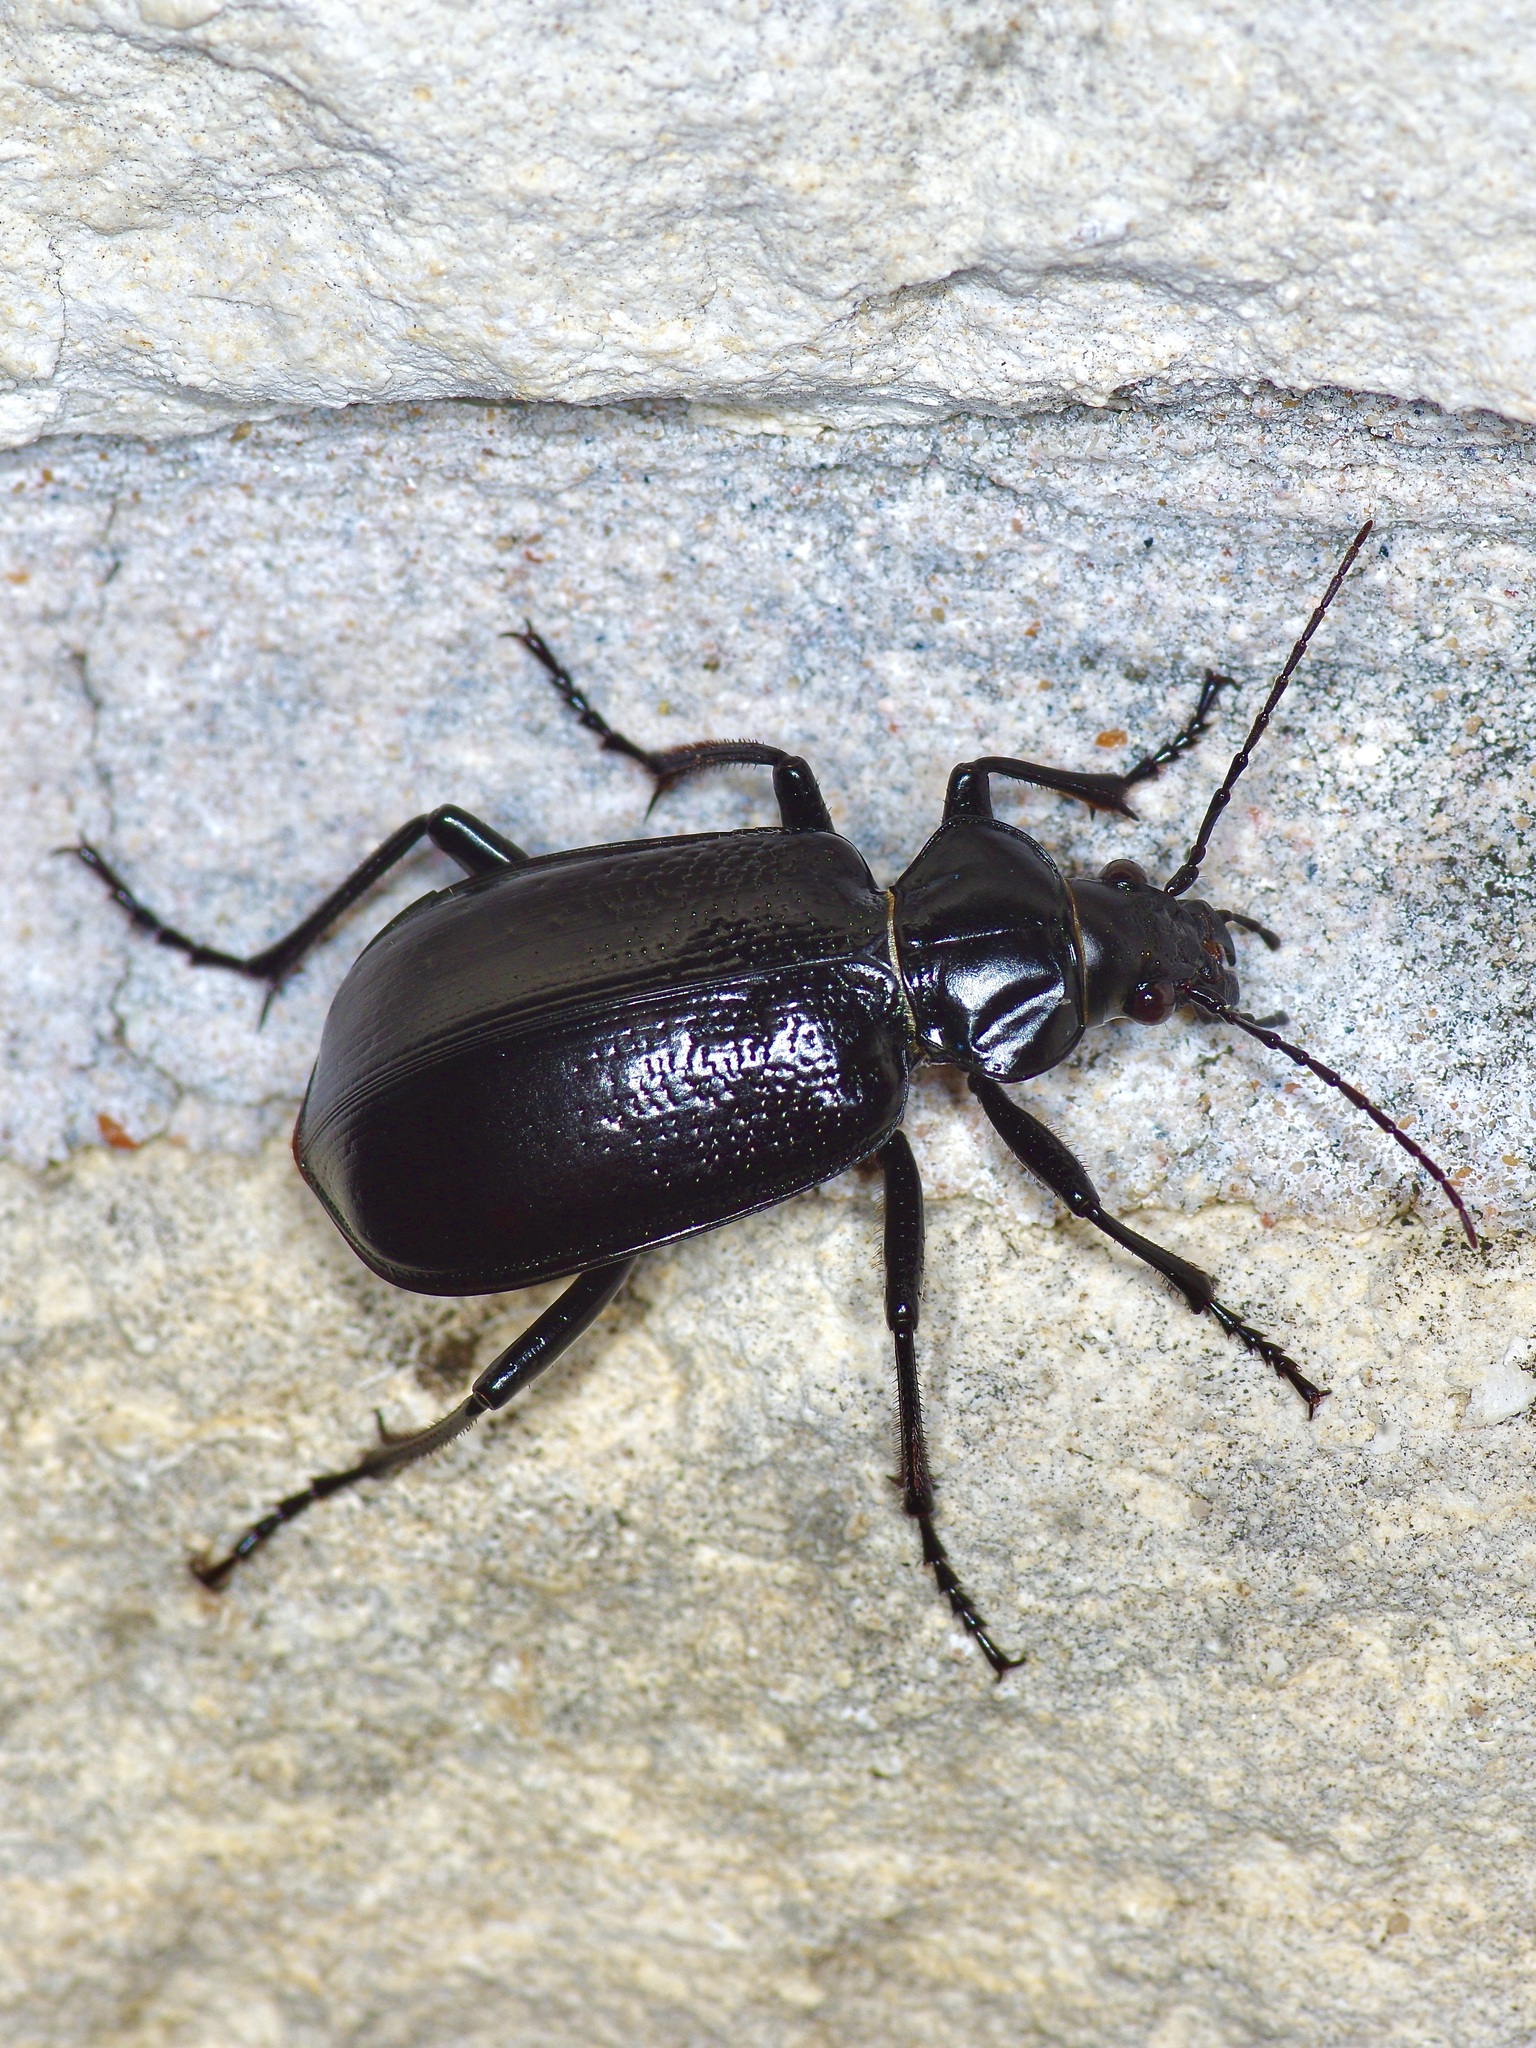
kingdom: Animalia
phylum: Arthropoda
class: Insecta
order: Coleoptera
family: Carabidae
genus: Calosoma
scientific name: Calosoma marginale
